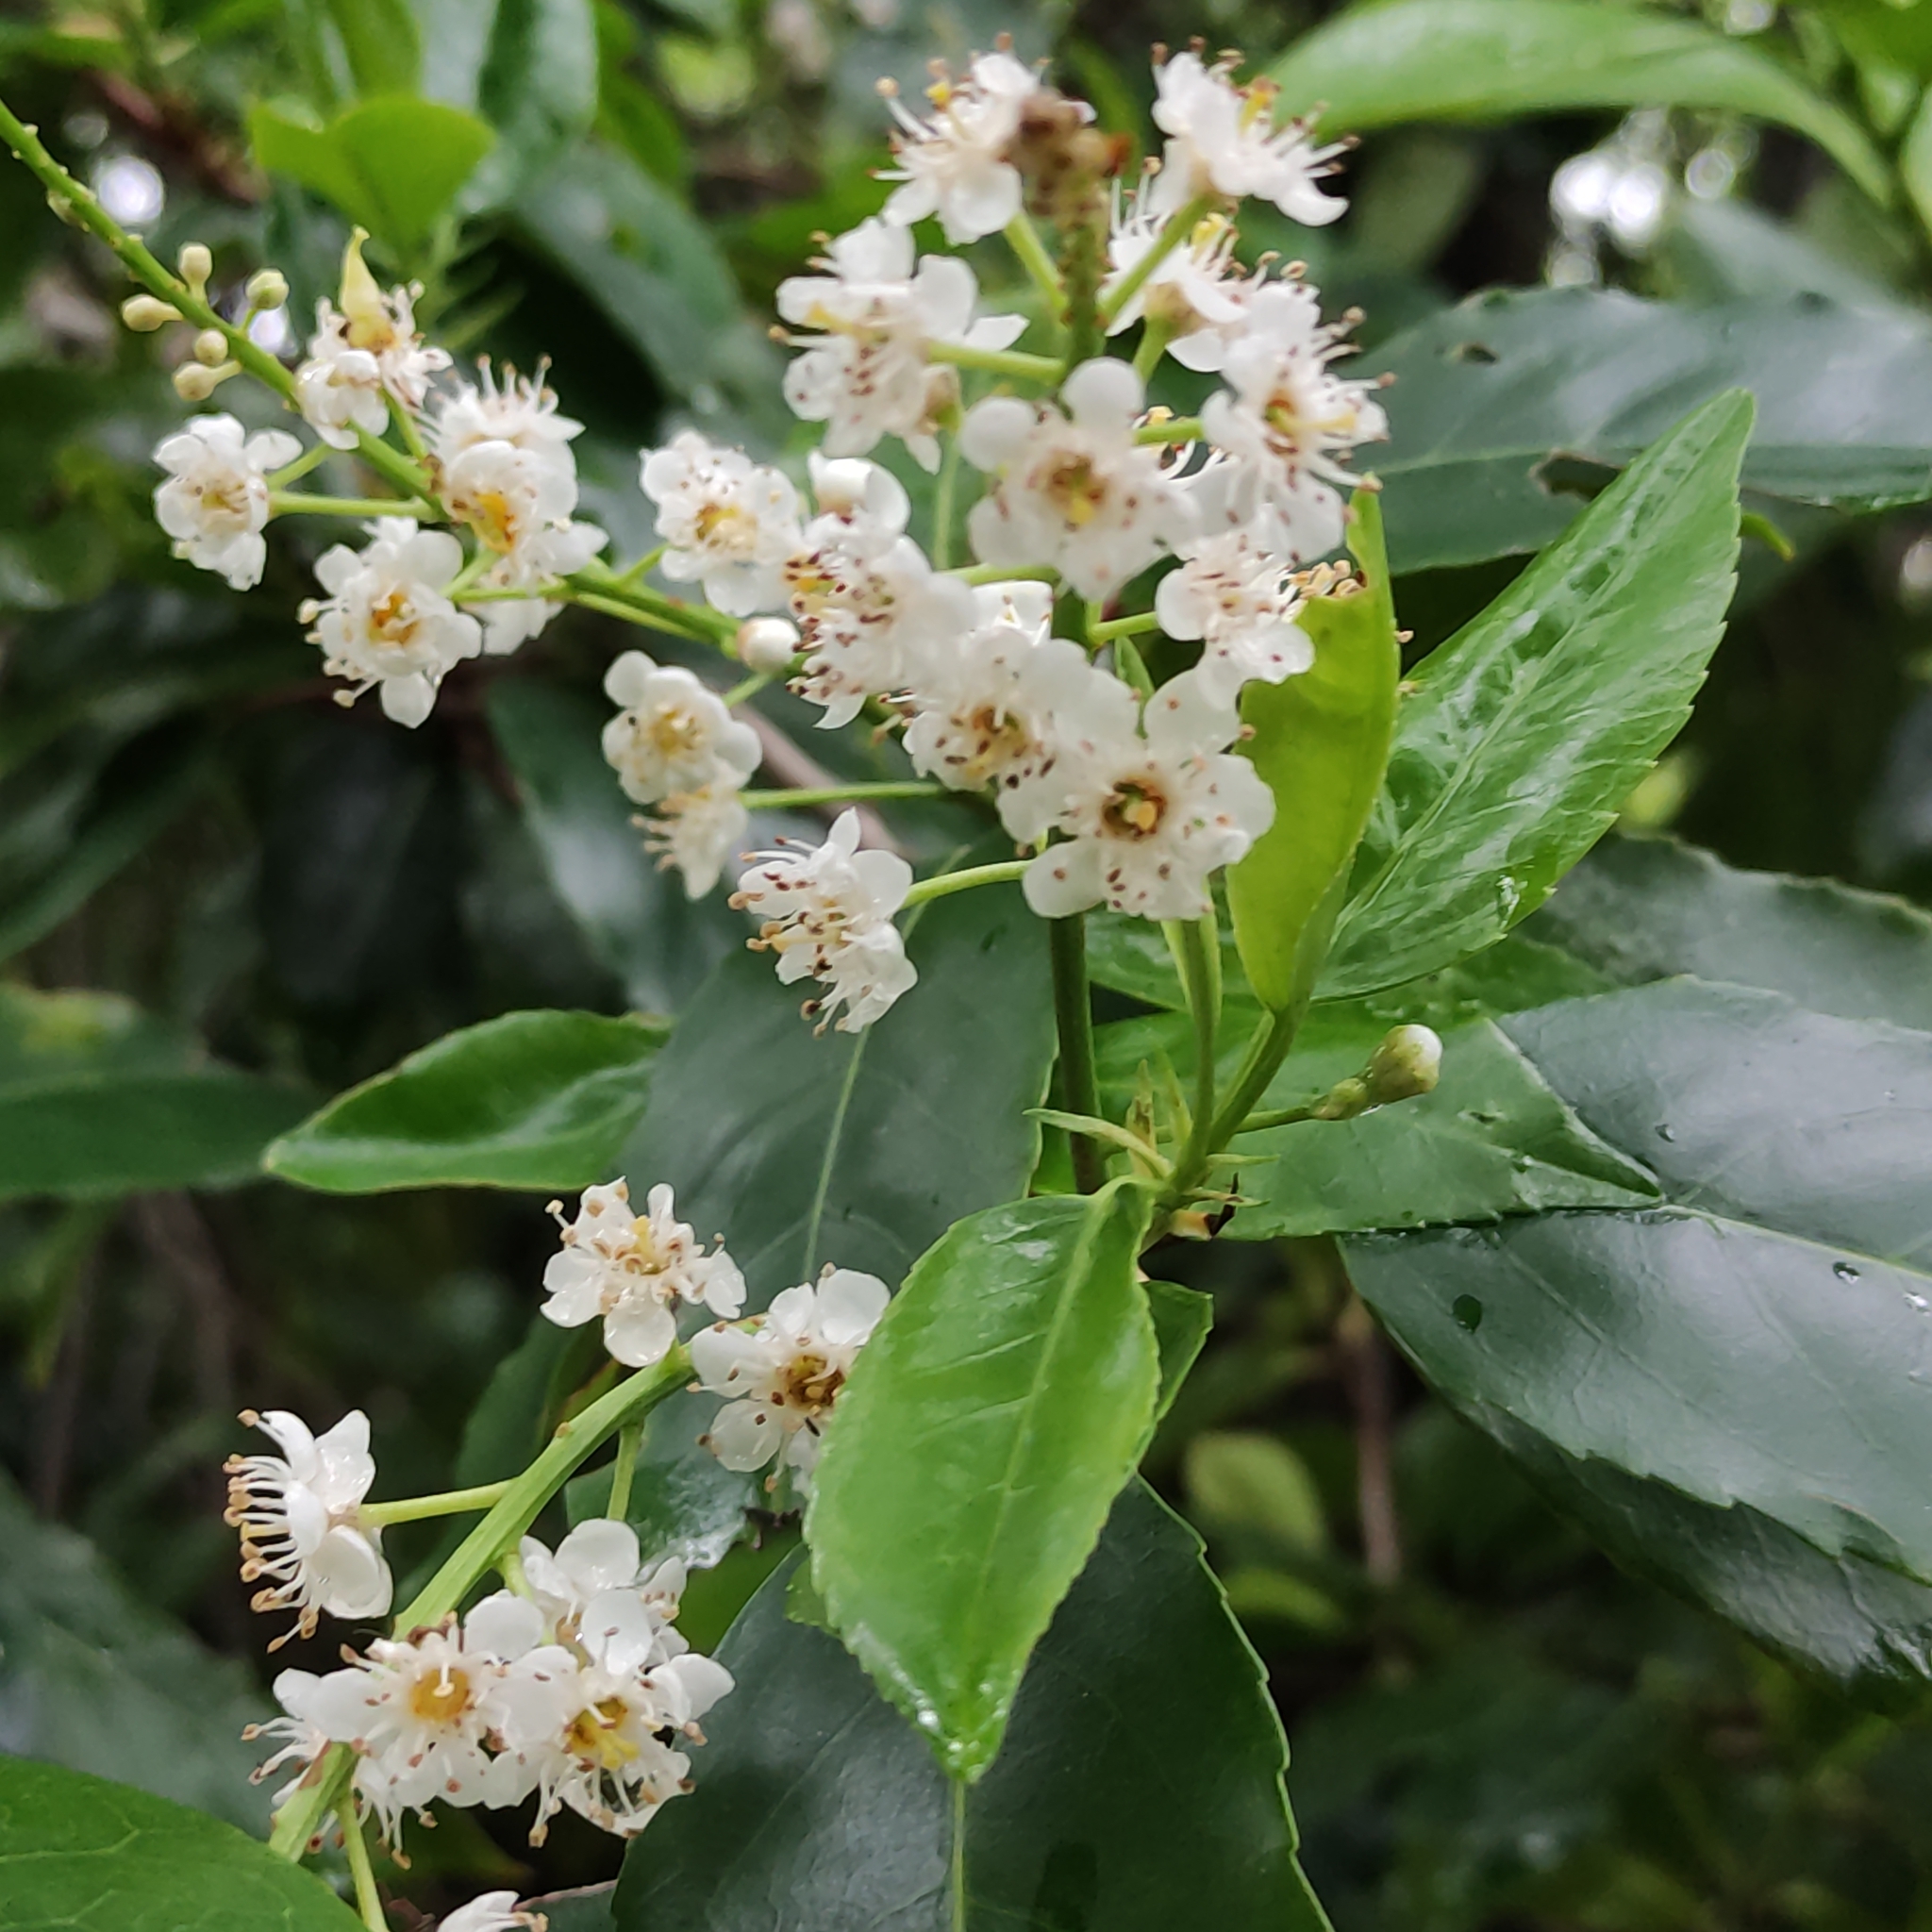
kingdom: Plantae
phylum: Tracheophyta
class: Magnoliopsida
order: Rosales
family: Rosaceae
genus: Prunus
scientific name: Prunus lusitanica
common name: Portugal laurel
